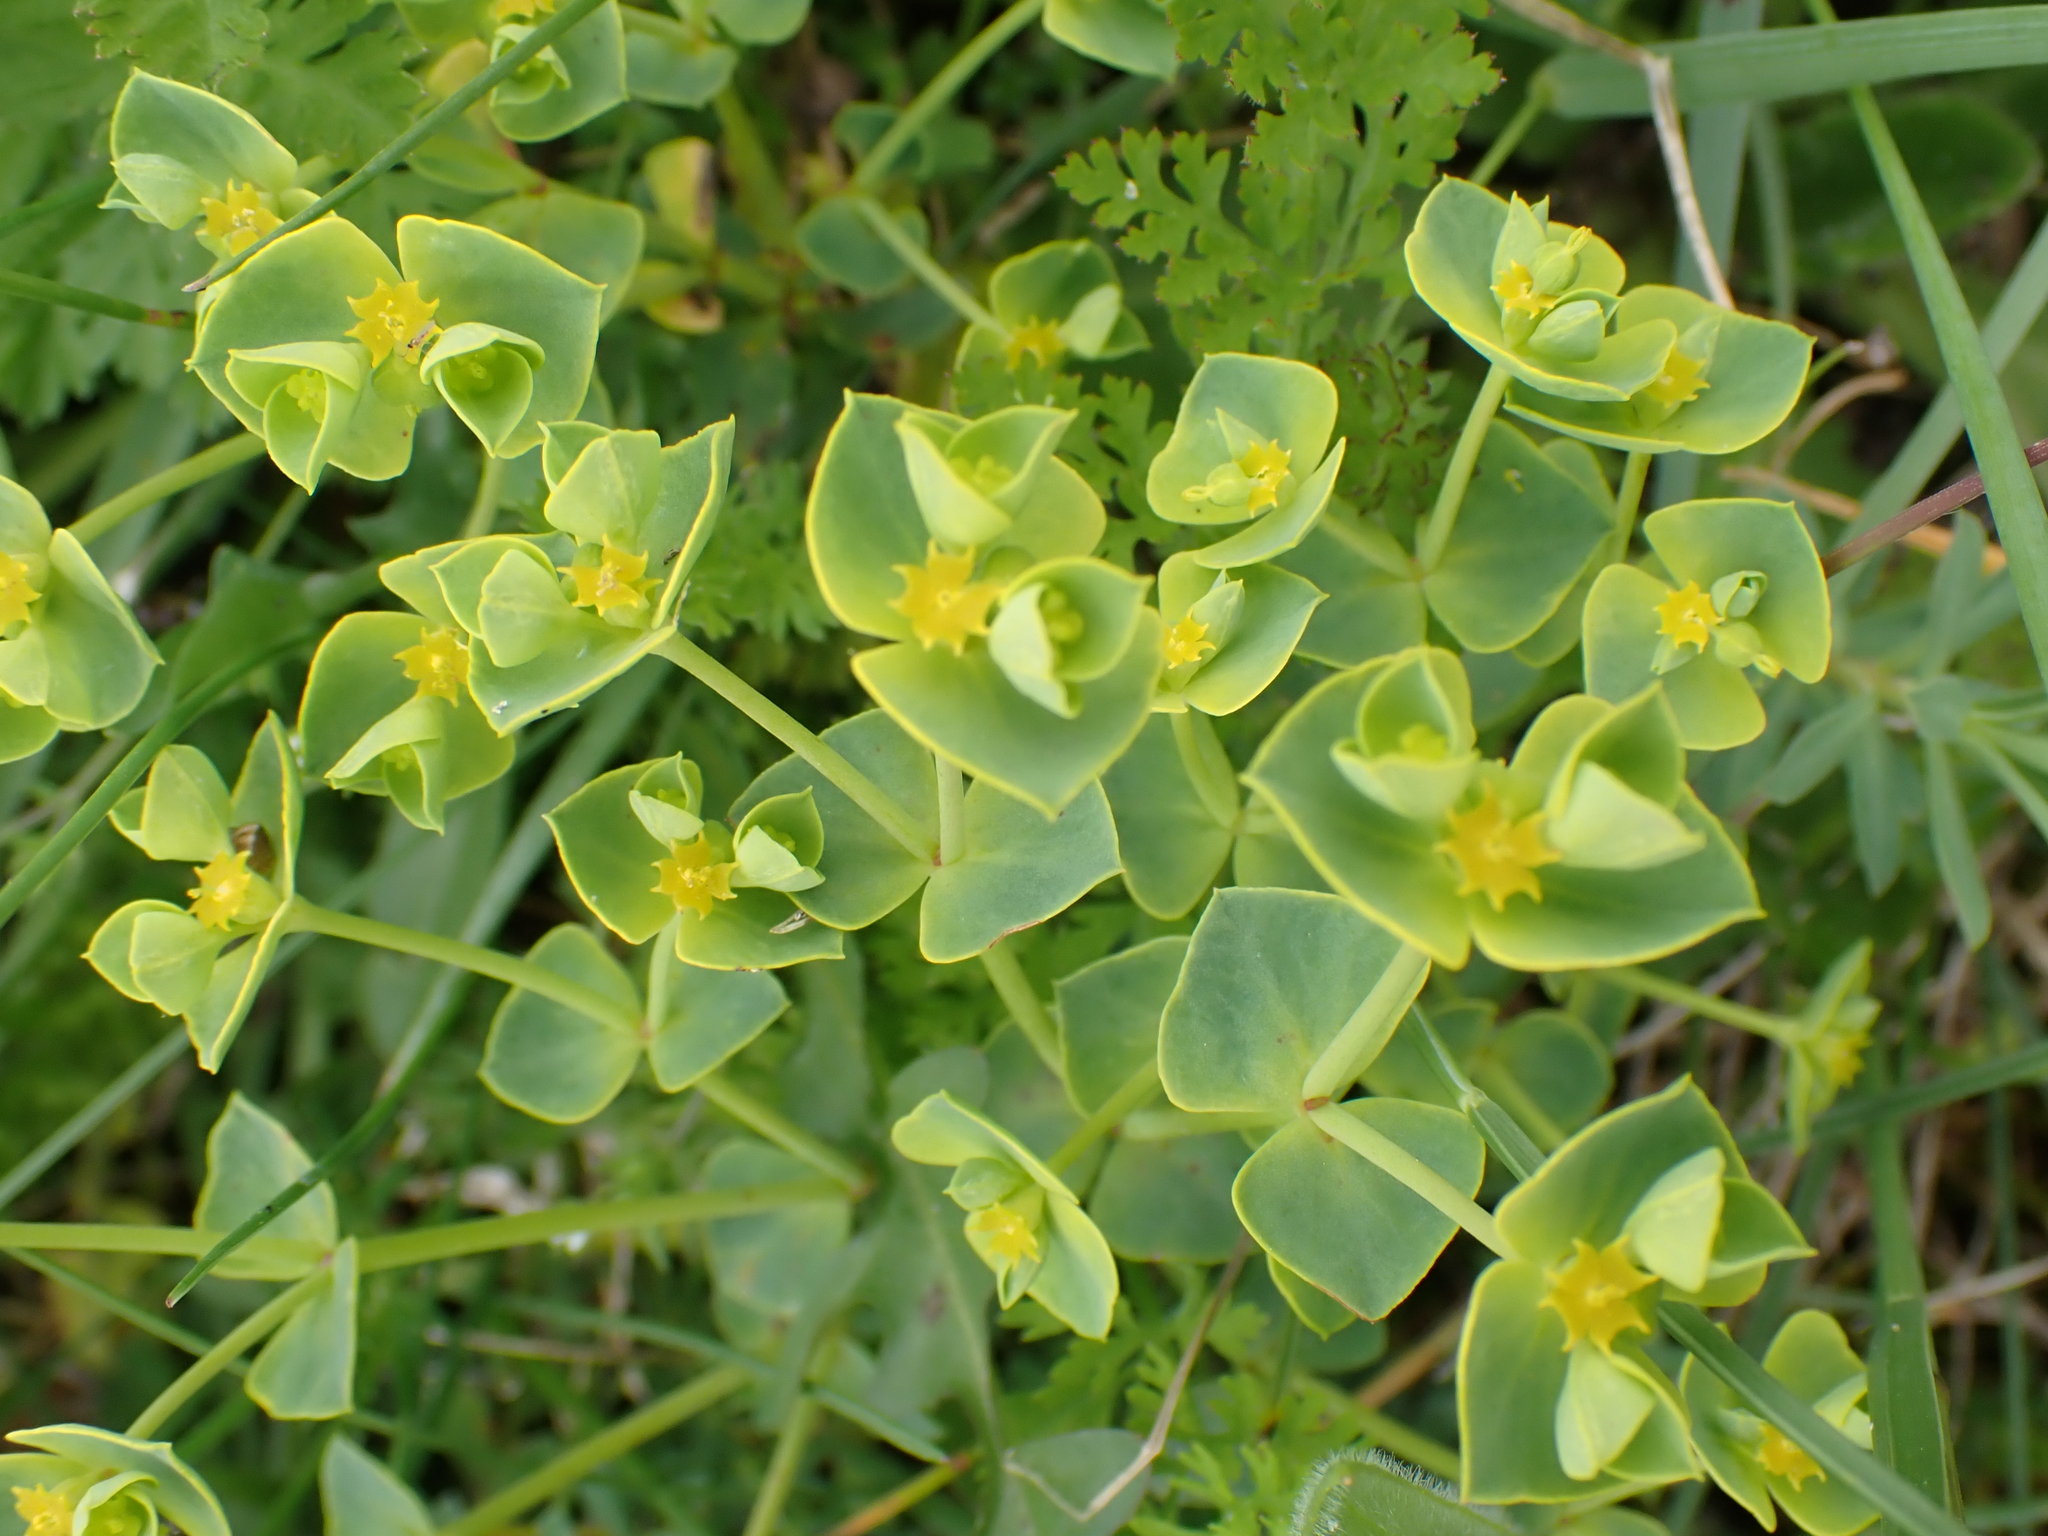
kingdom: Plantae
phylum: Tracheophyta
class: Magnoliopsida
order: Malpighiales
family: Euphorbiaceae
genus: Euphorbia
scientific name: Euphorbia portlandica
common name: Portland spurge
